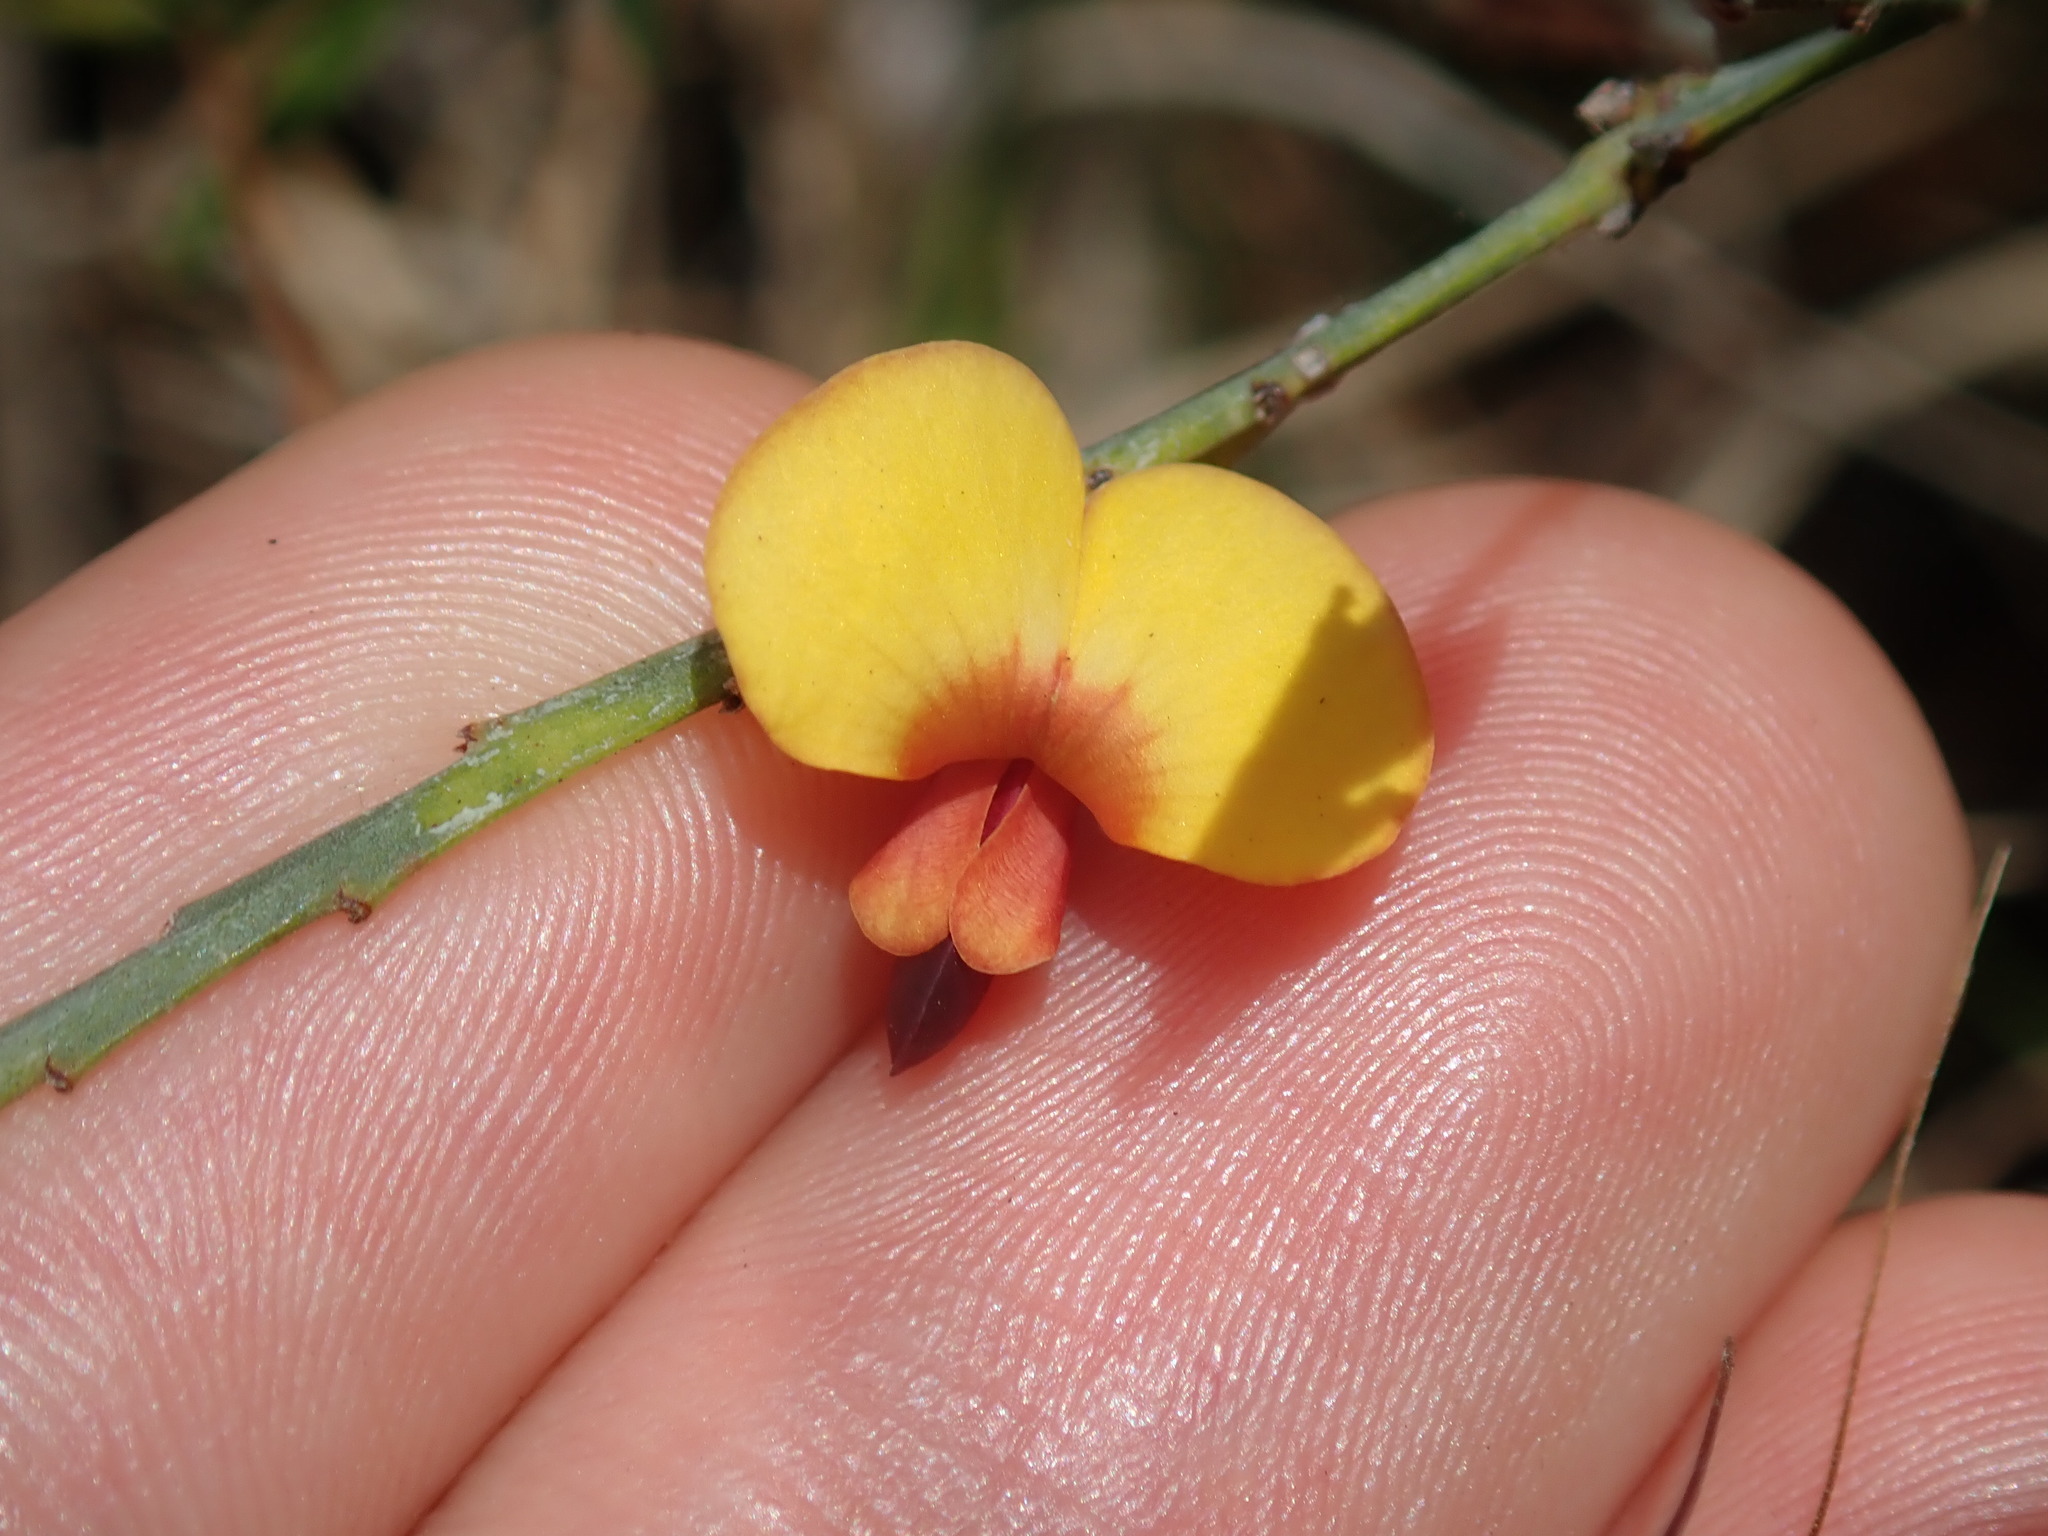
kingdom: Plantae
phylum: Tracheophyta
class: Magnoliopsida
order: Fabales
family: Fabaceae
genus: Bossiaea
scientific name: Bossiaea heterophylla
